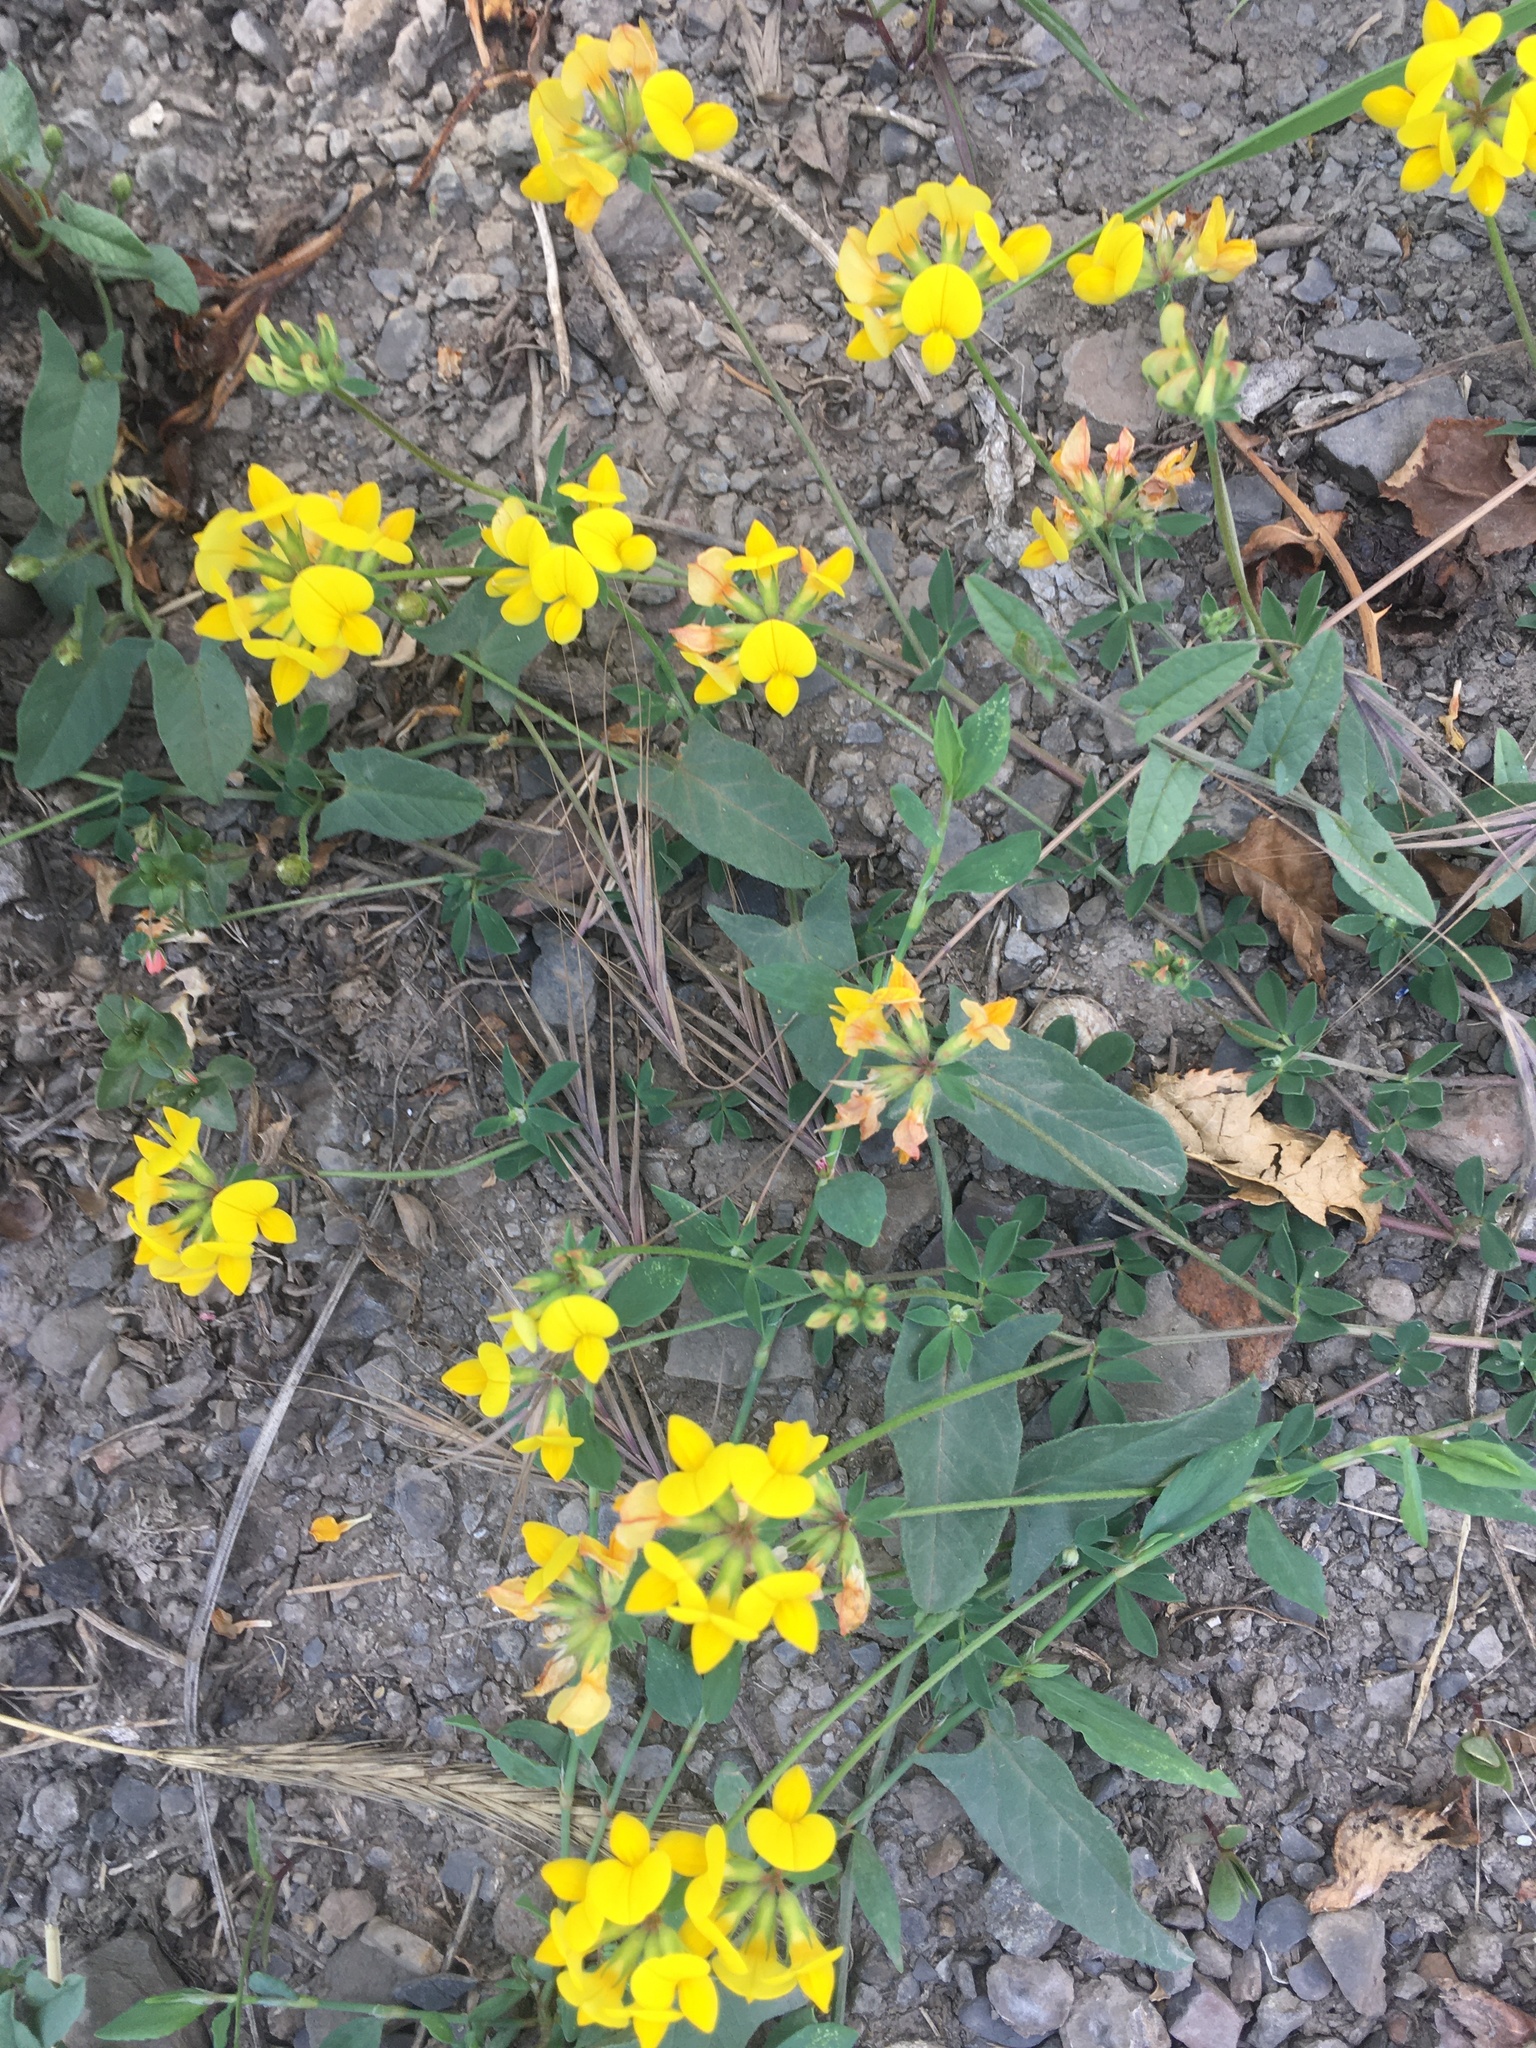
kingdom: Plantae
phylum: Tracheophyta
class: Magnoliopsida
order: Fabales
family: Fabaceae
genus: Lotus
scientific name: Lotus corniculatus
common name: Common bird's-foot-trefoil
